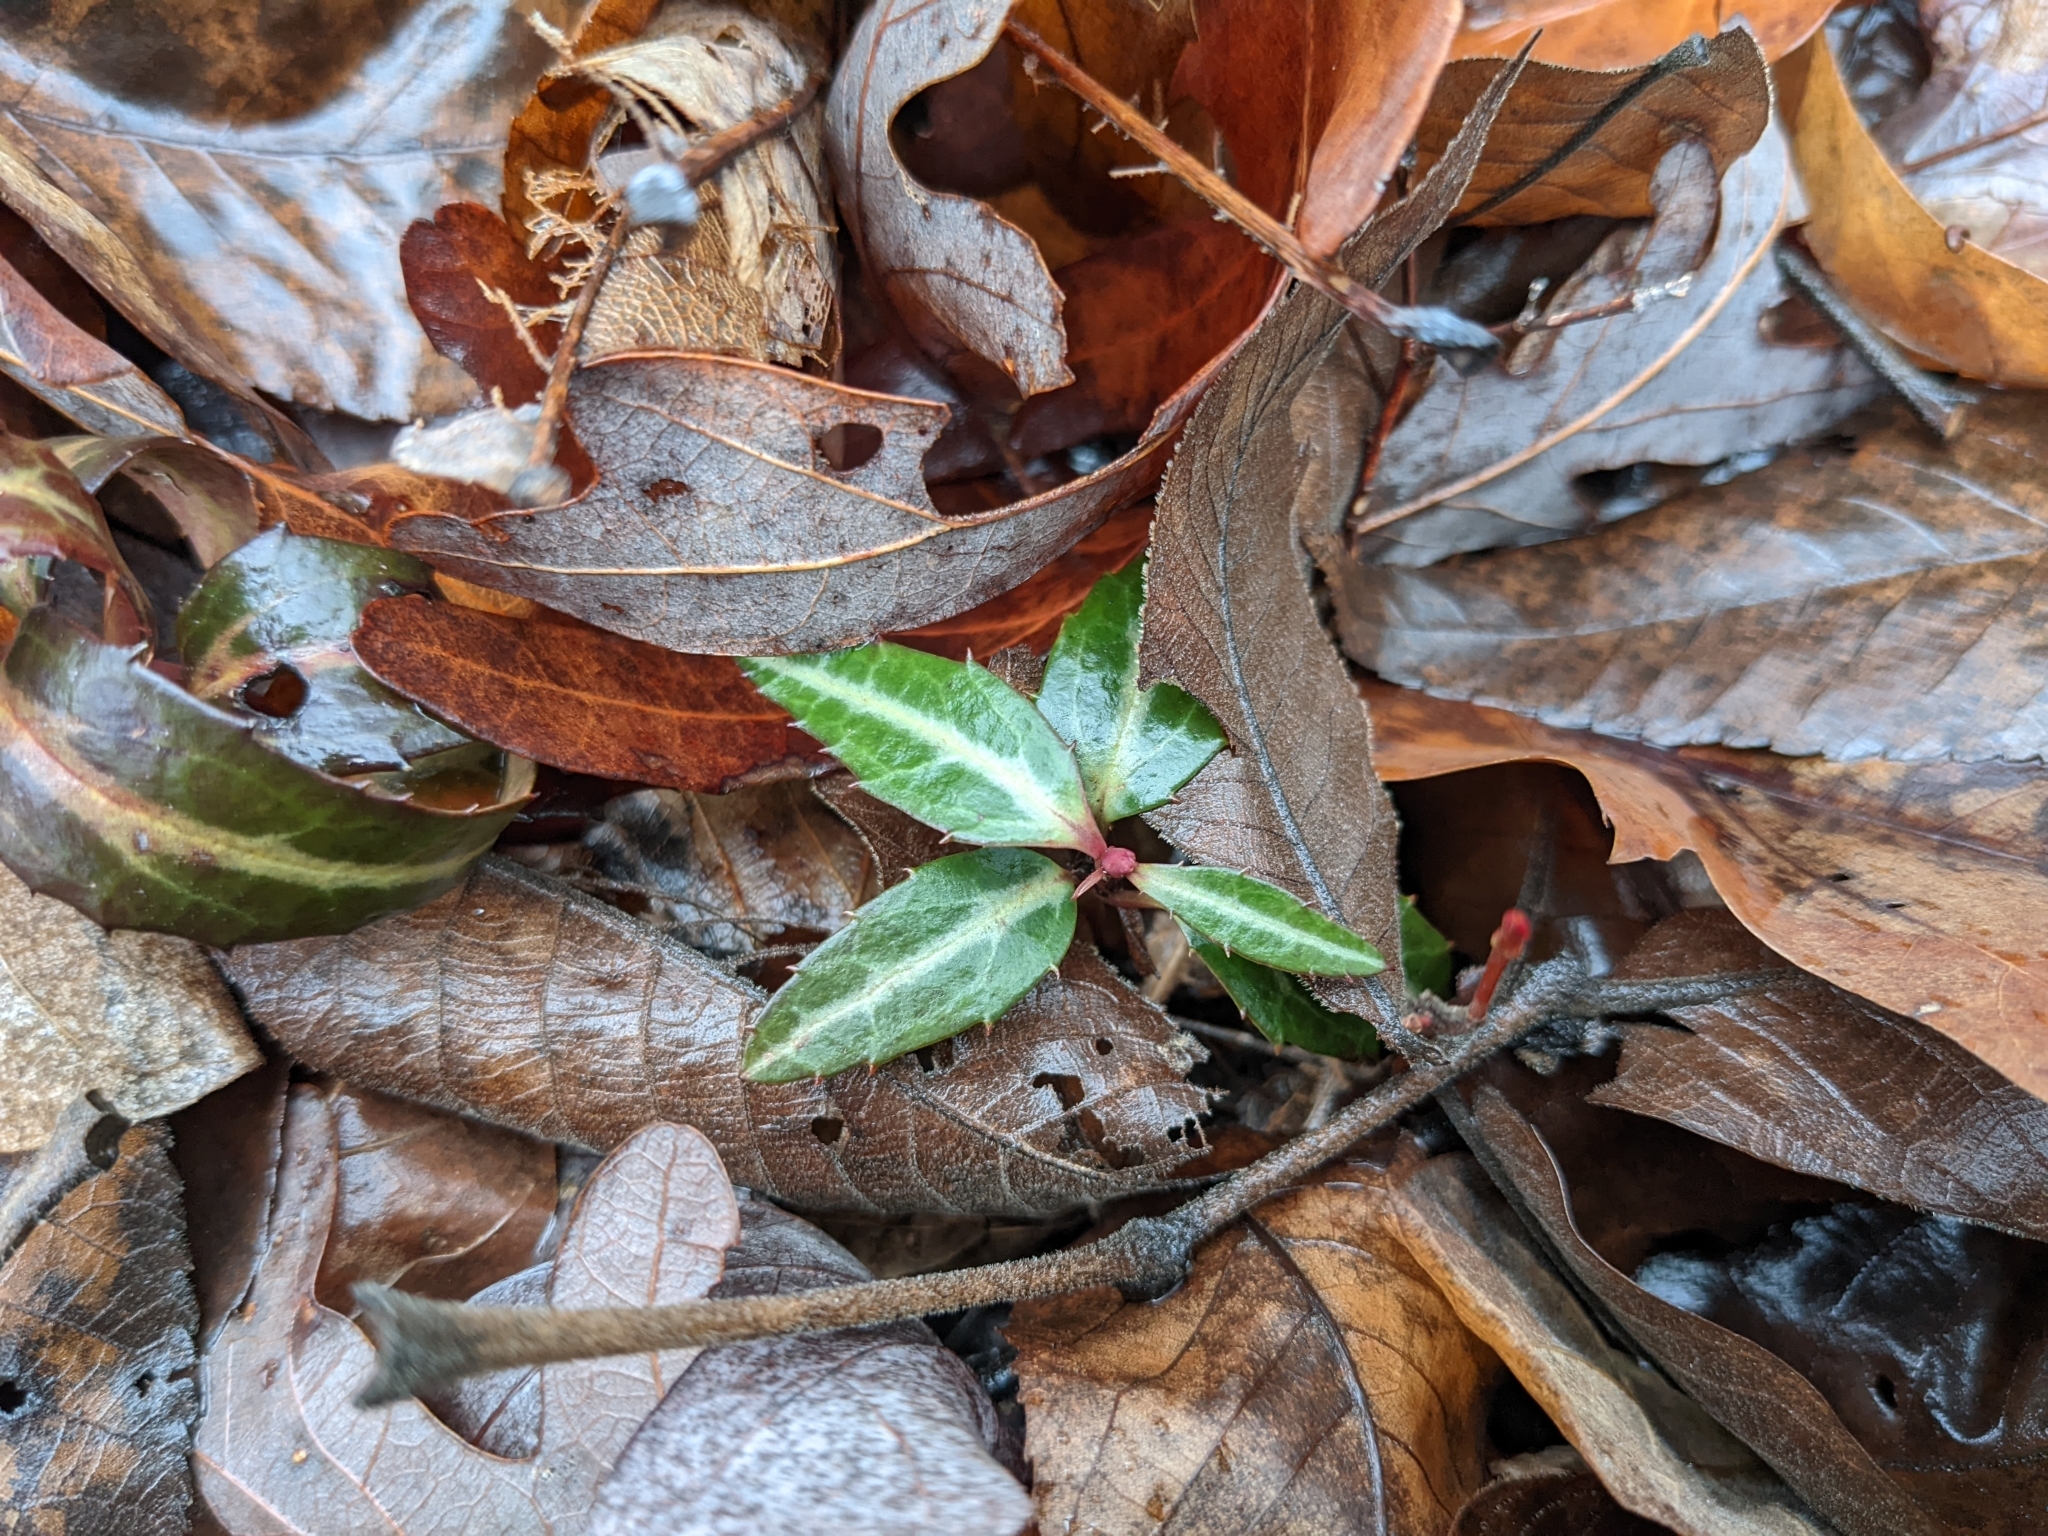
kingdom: Plantae
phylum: Tracheophyta
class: Magnoliopsida
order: Ericales
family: Ericaceae
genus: Chimaphila
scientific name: Chimaphila maculata
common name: Spotted pipsissewa
